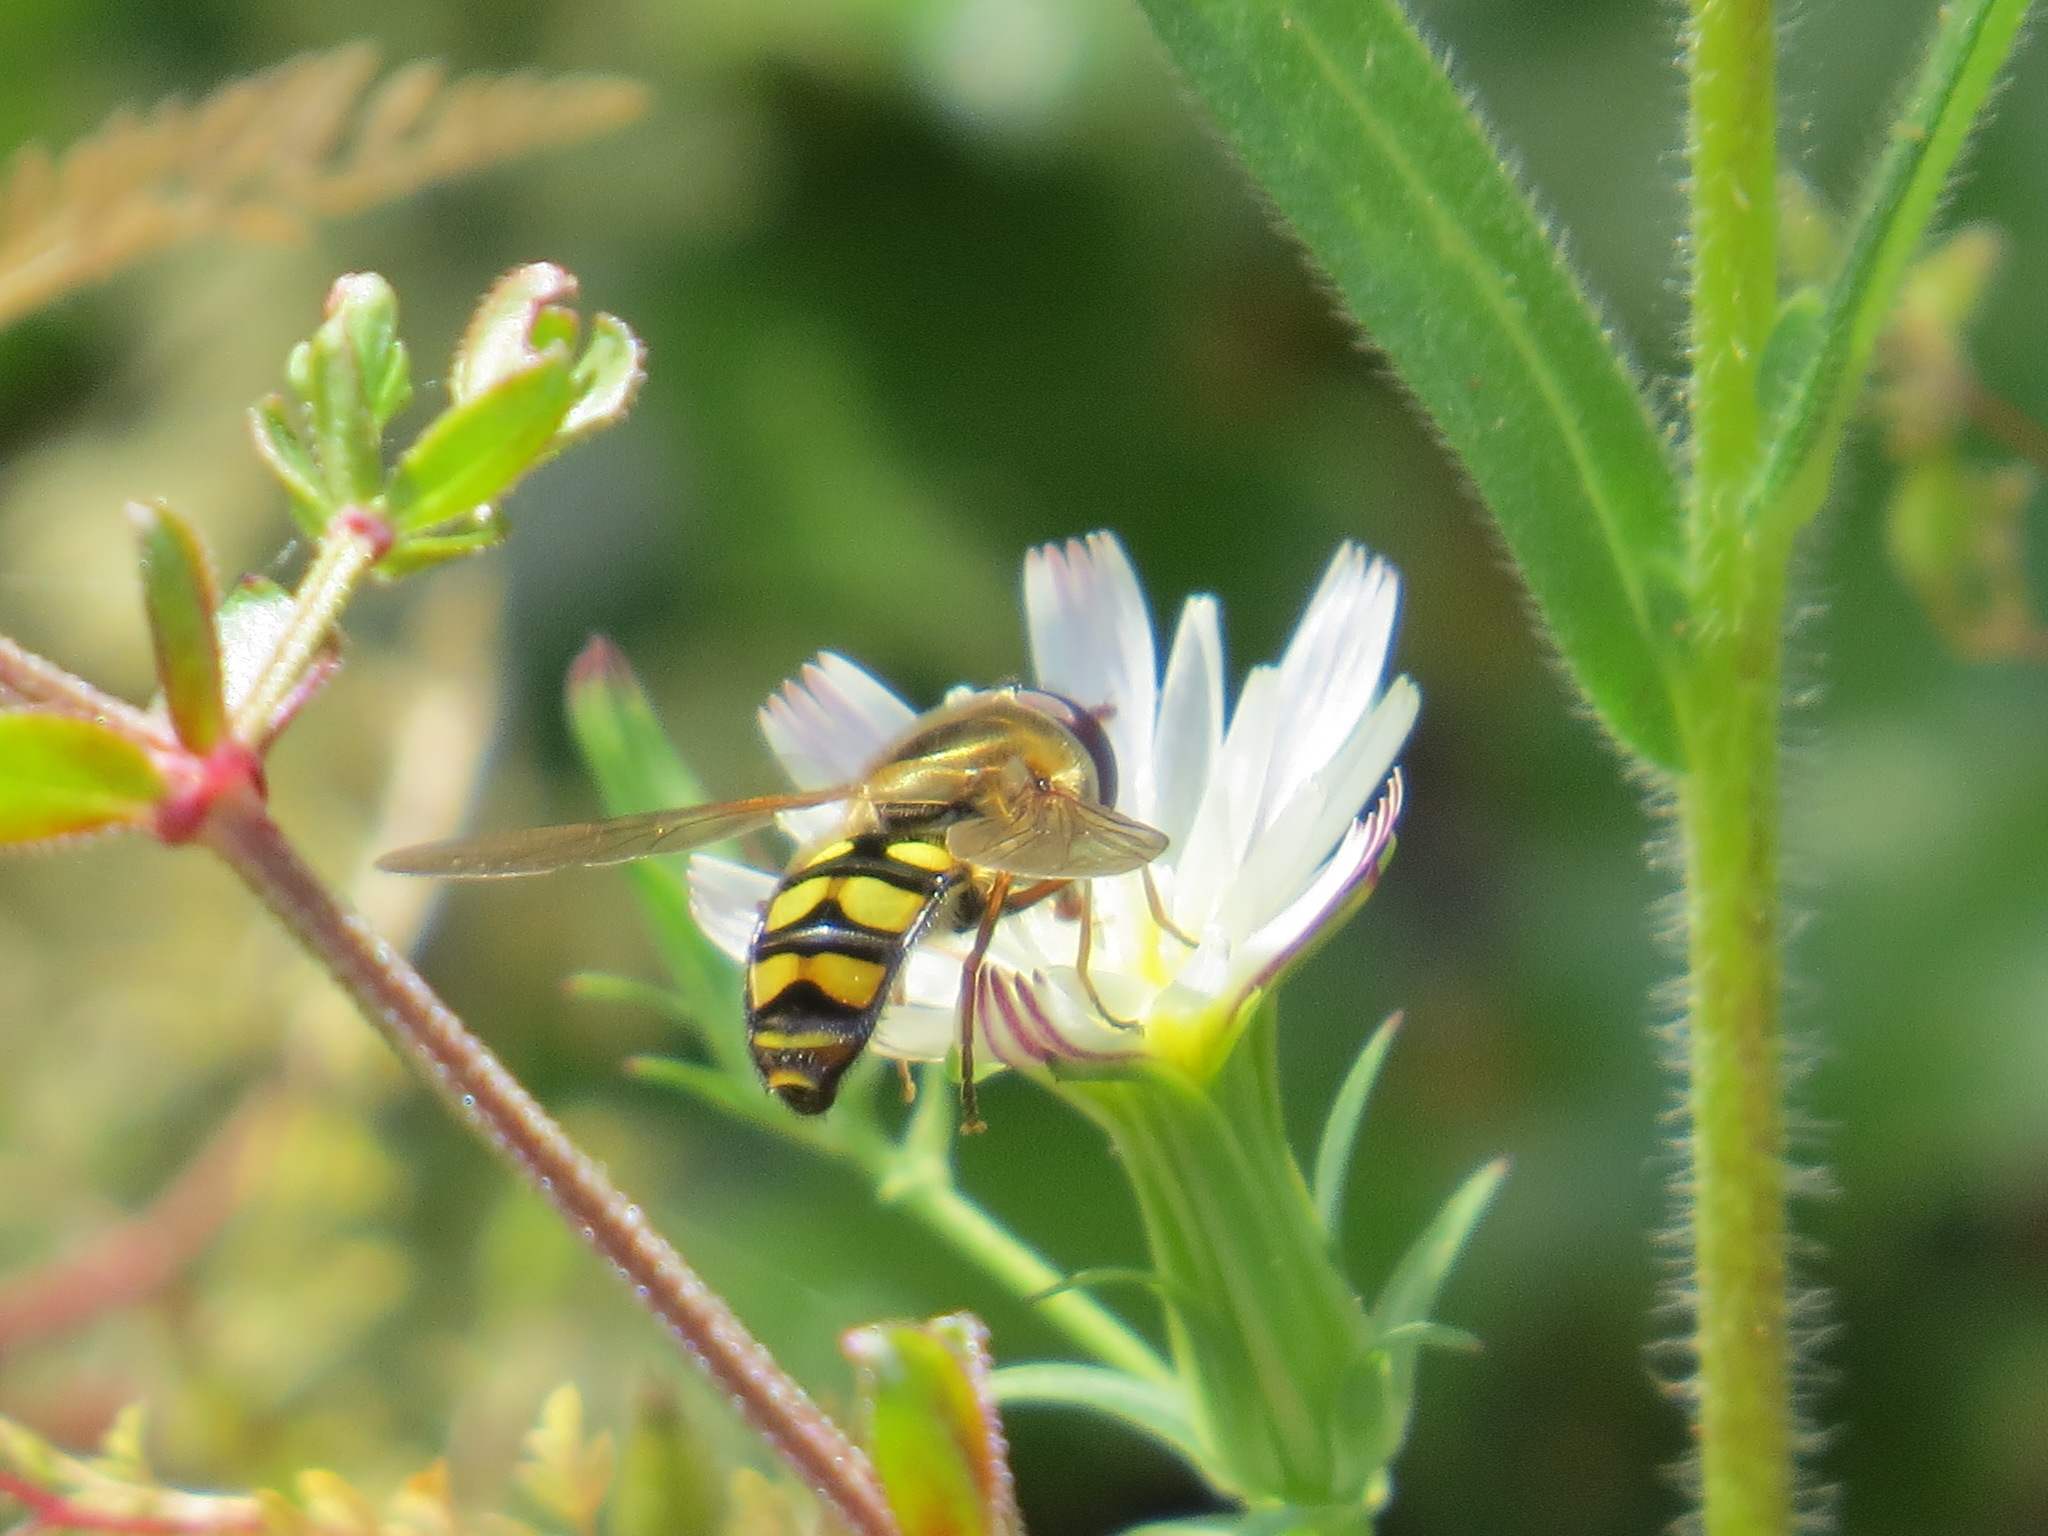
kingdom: Animalia
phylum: Arthropoda
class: Insecta
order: Diptera
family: Syrphidae
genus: Eupeodes
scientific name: Eupeodes fumipennis
